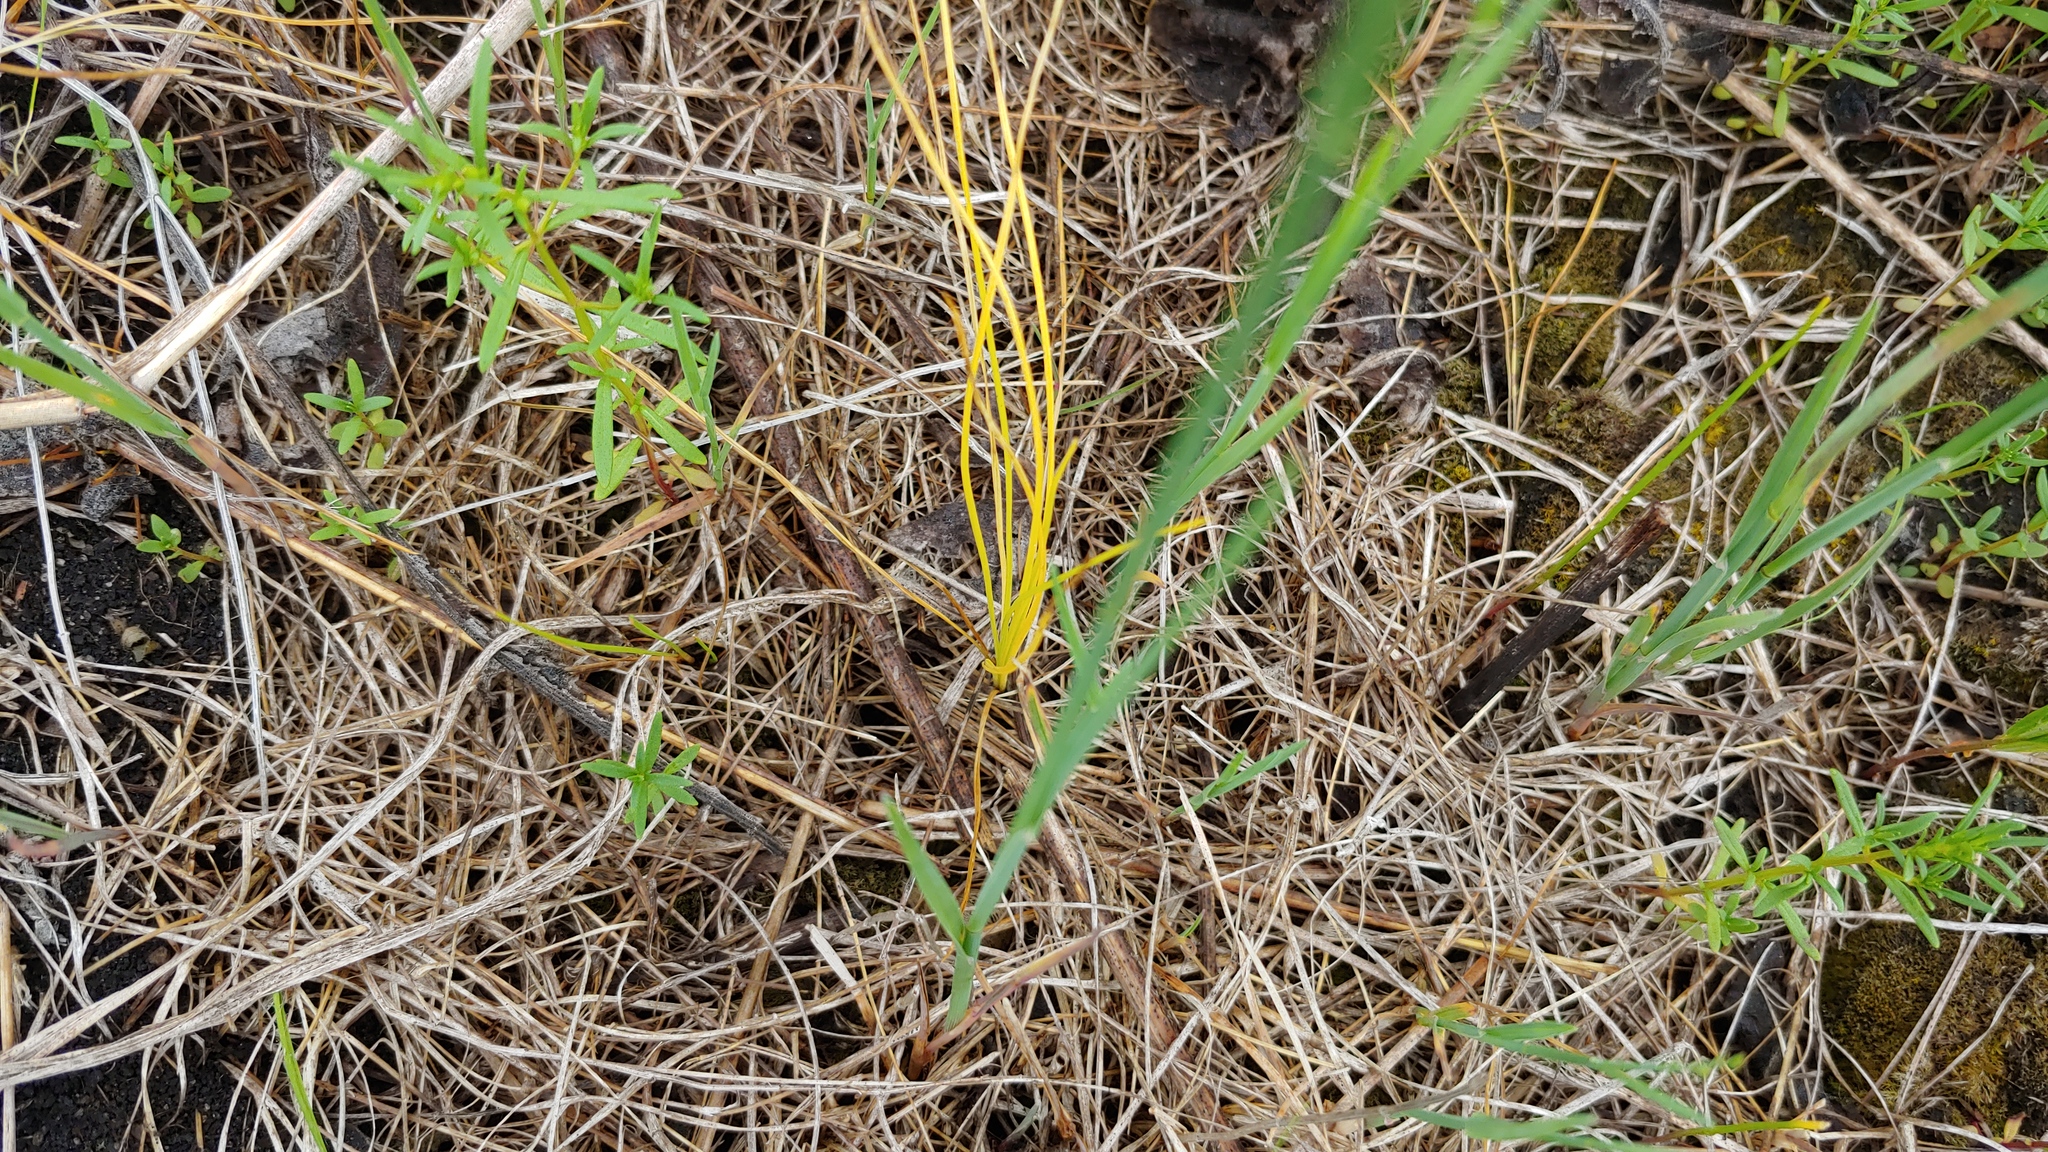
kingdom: Plantae
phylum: Tracheophyta
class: Lycopodiopsida
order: Isoetales
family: Isoetaceae
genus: Isoetes
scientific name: Isoetes butleri
